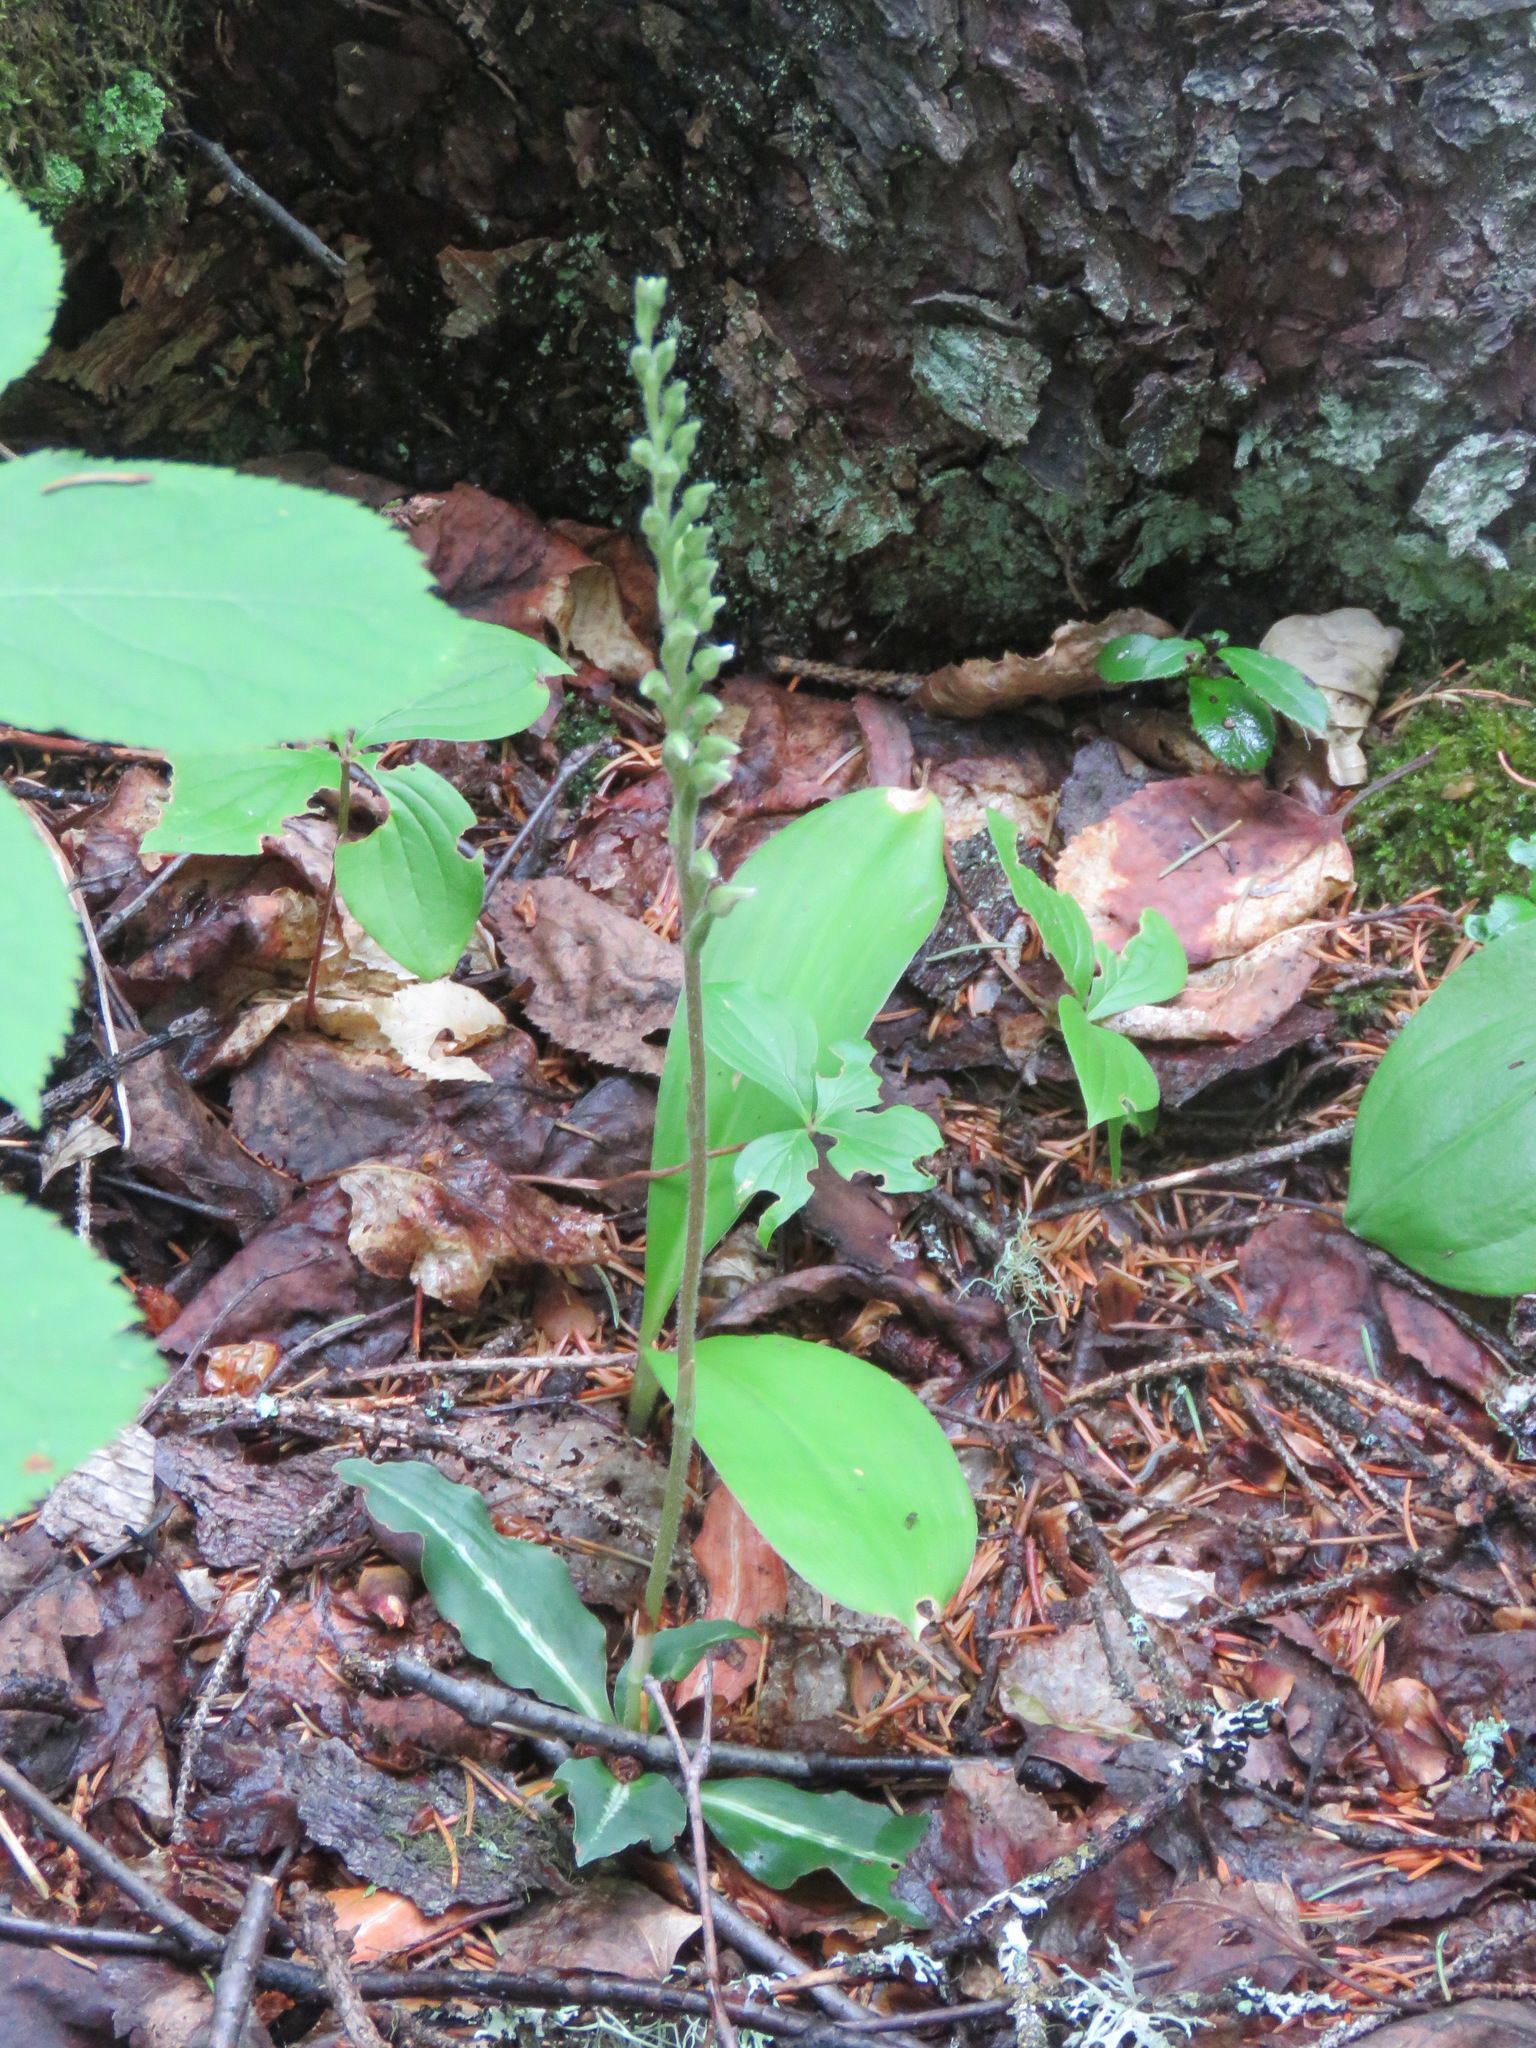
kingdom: Plantae
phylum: Tracheophyta
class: Liliopsida
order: Asparagales
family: Orchidaceae
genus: Goodyera
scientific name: Goodyera oblongifolia
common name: Giant rattlesnake-plantain
